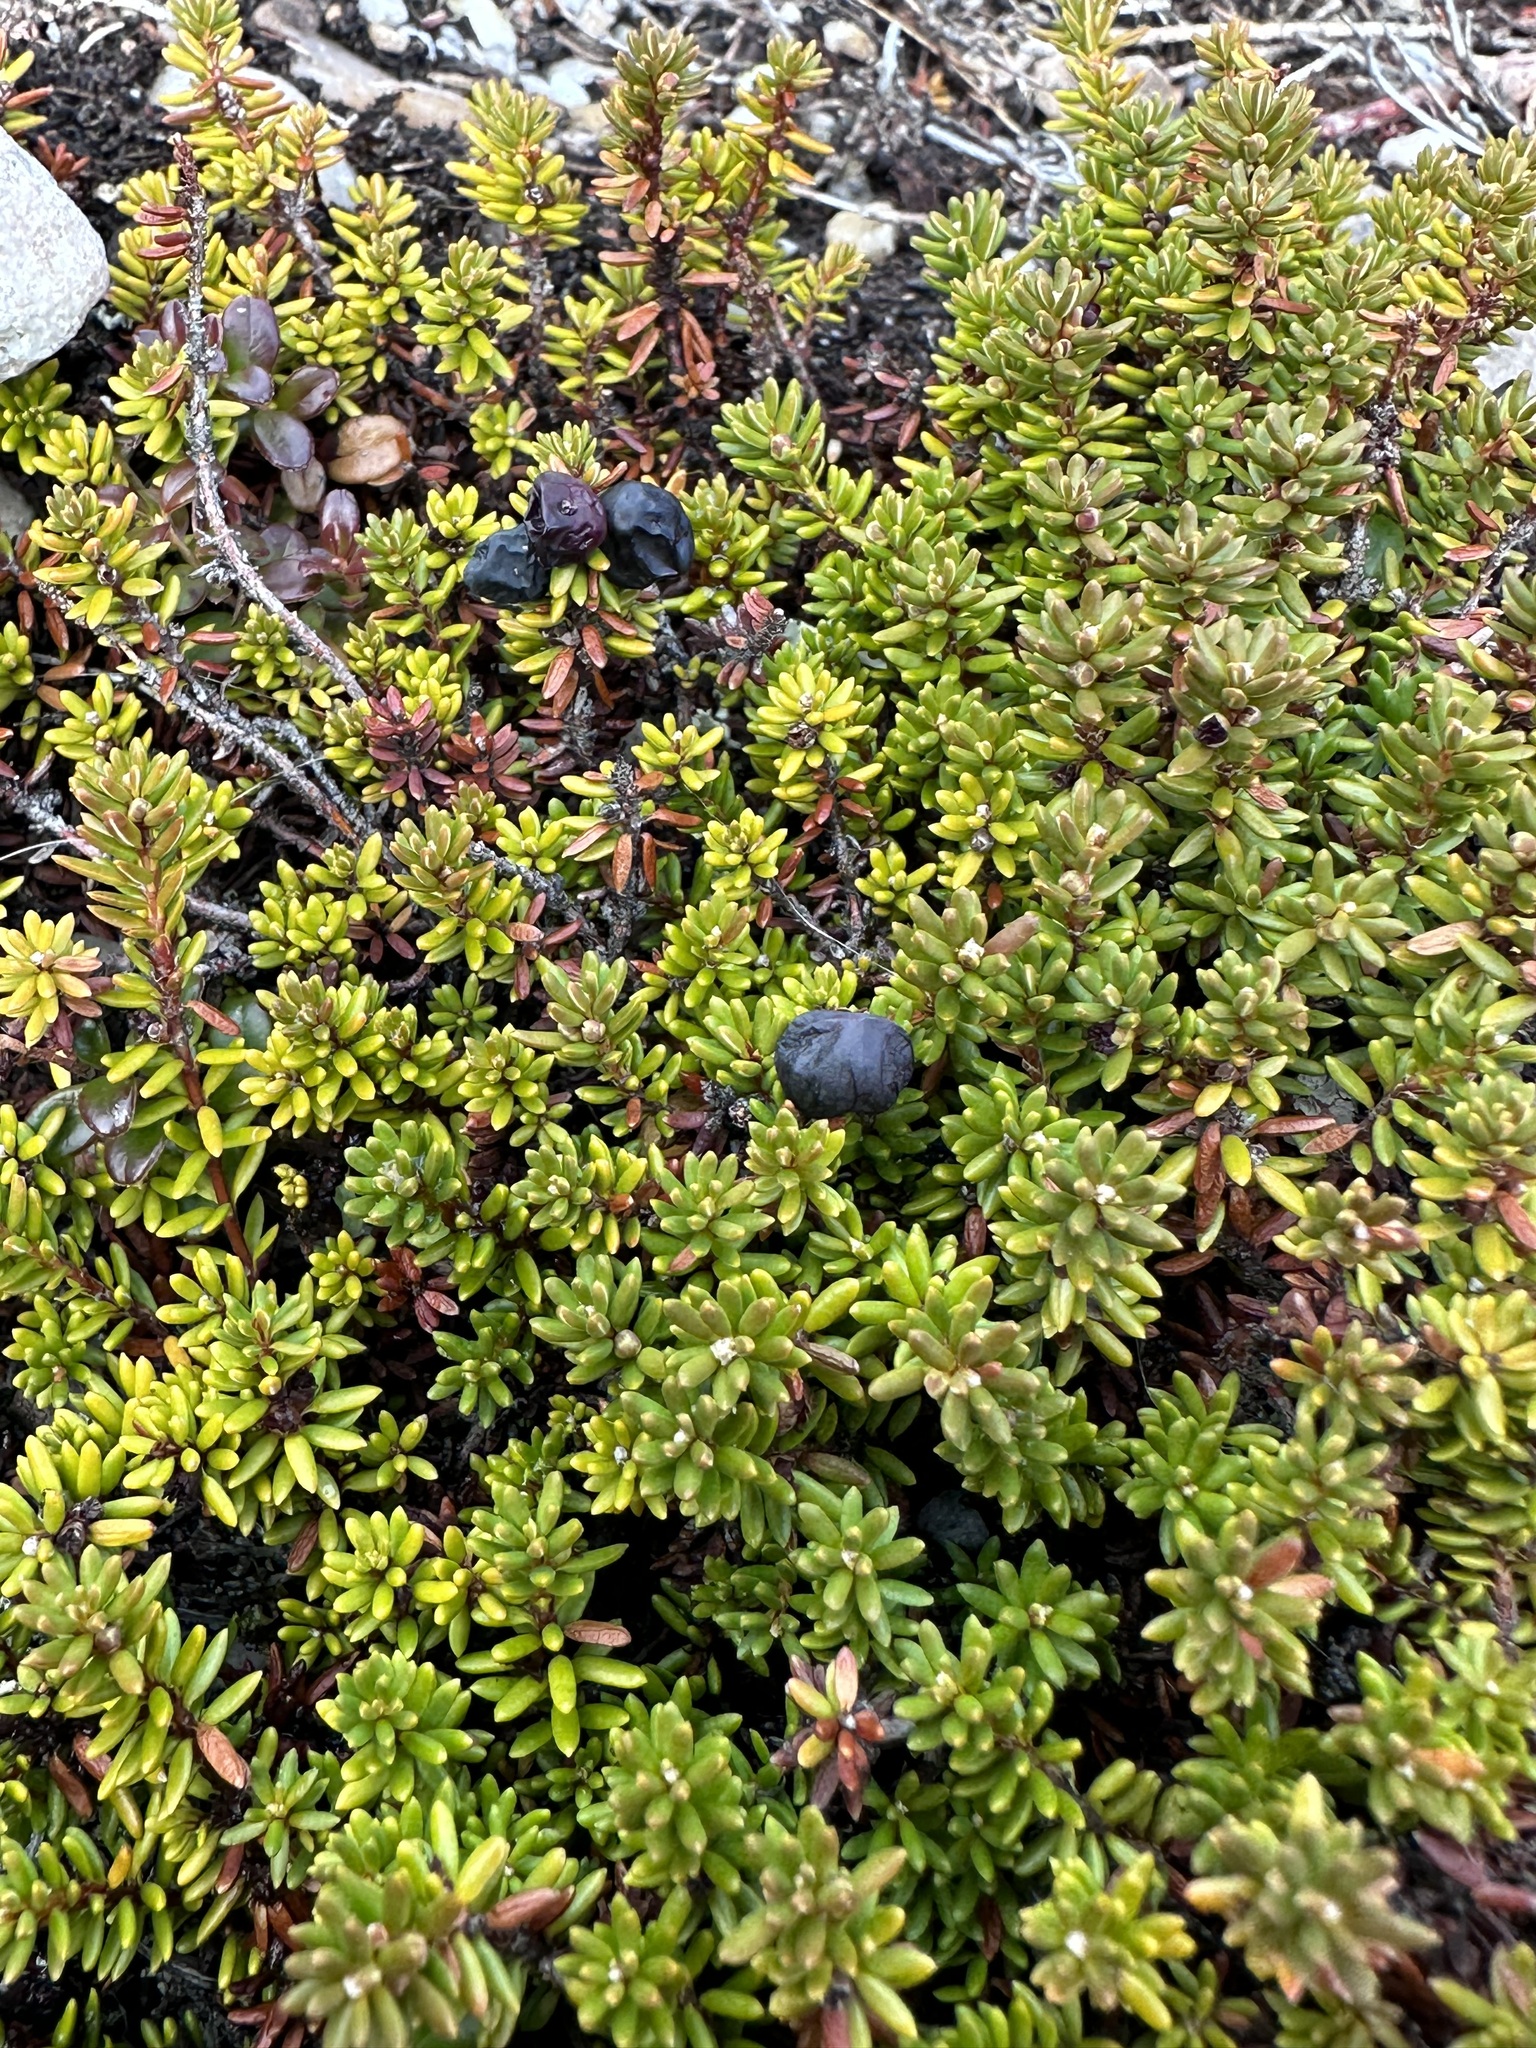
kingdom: Plantae
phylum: Tracheophyta
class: Magnoliopsida
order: Ericales
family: Ericaceae
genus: Empetrum
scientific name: Empetrum nigrum
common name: Black crowberry
